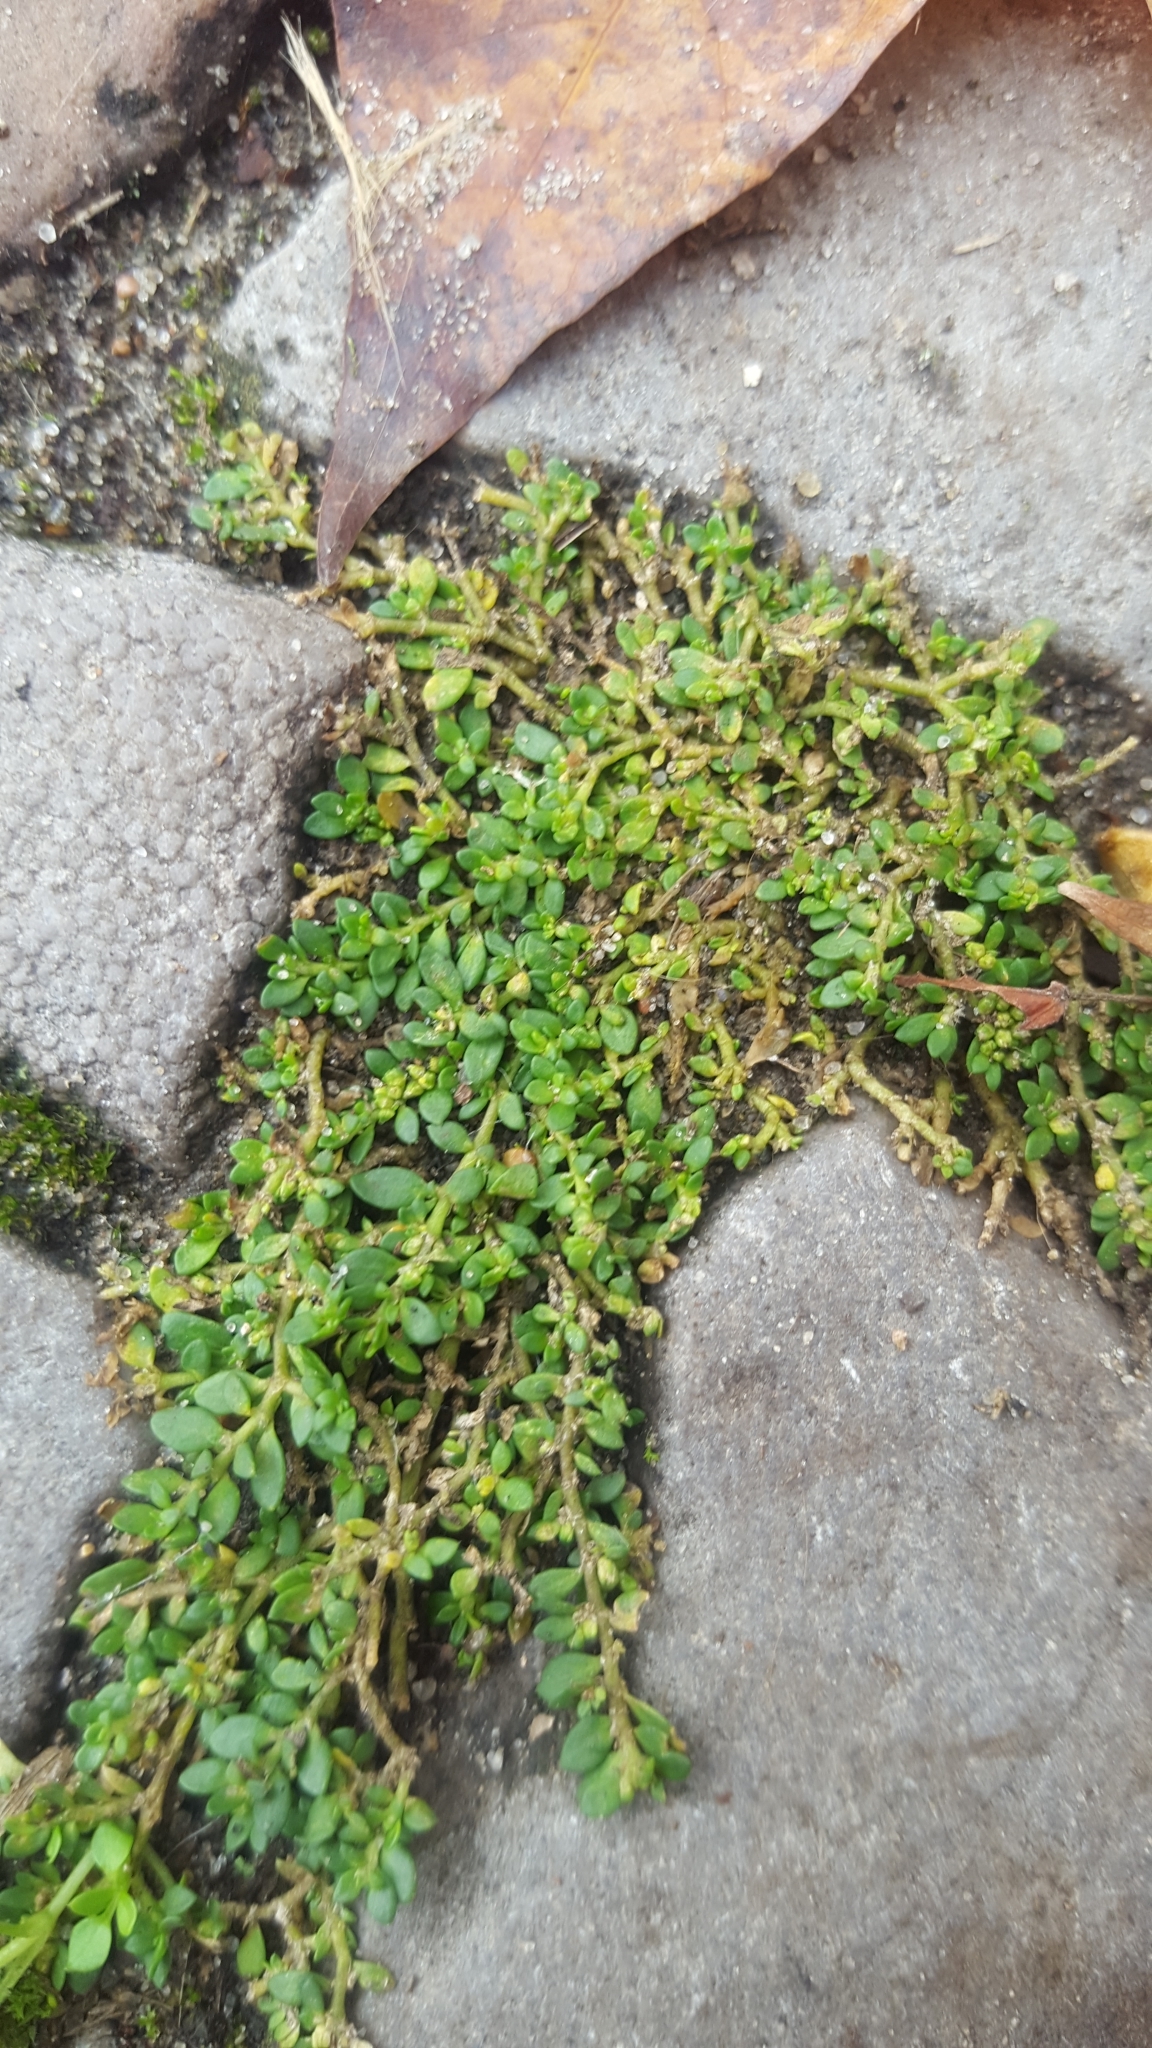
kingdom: Plantae
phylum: Tracheophyta
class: Magnoliopsida
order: Caryophyllales
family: Caryophyllaceae
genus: Herniaria
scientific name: Herniaria glabra
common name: Smooth rupturewort
